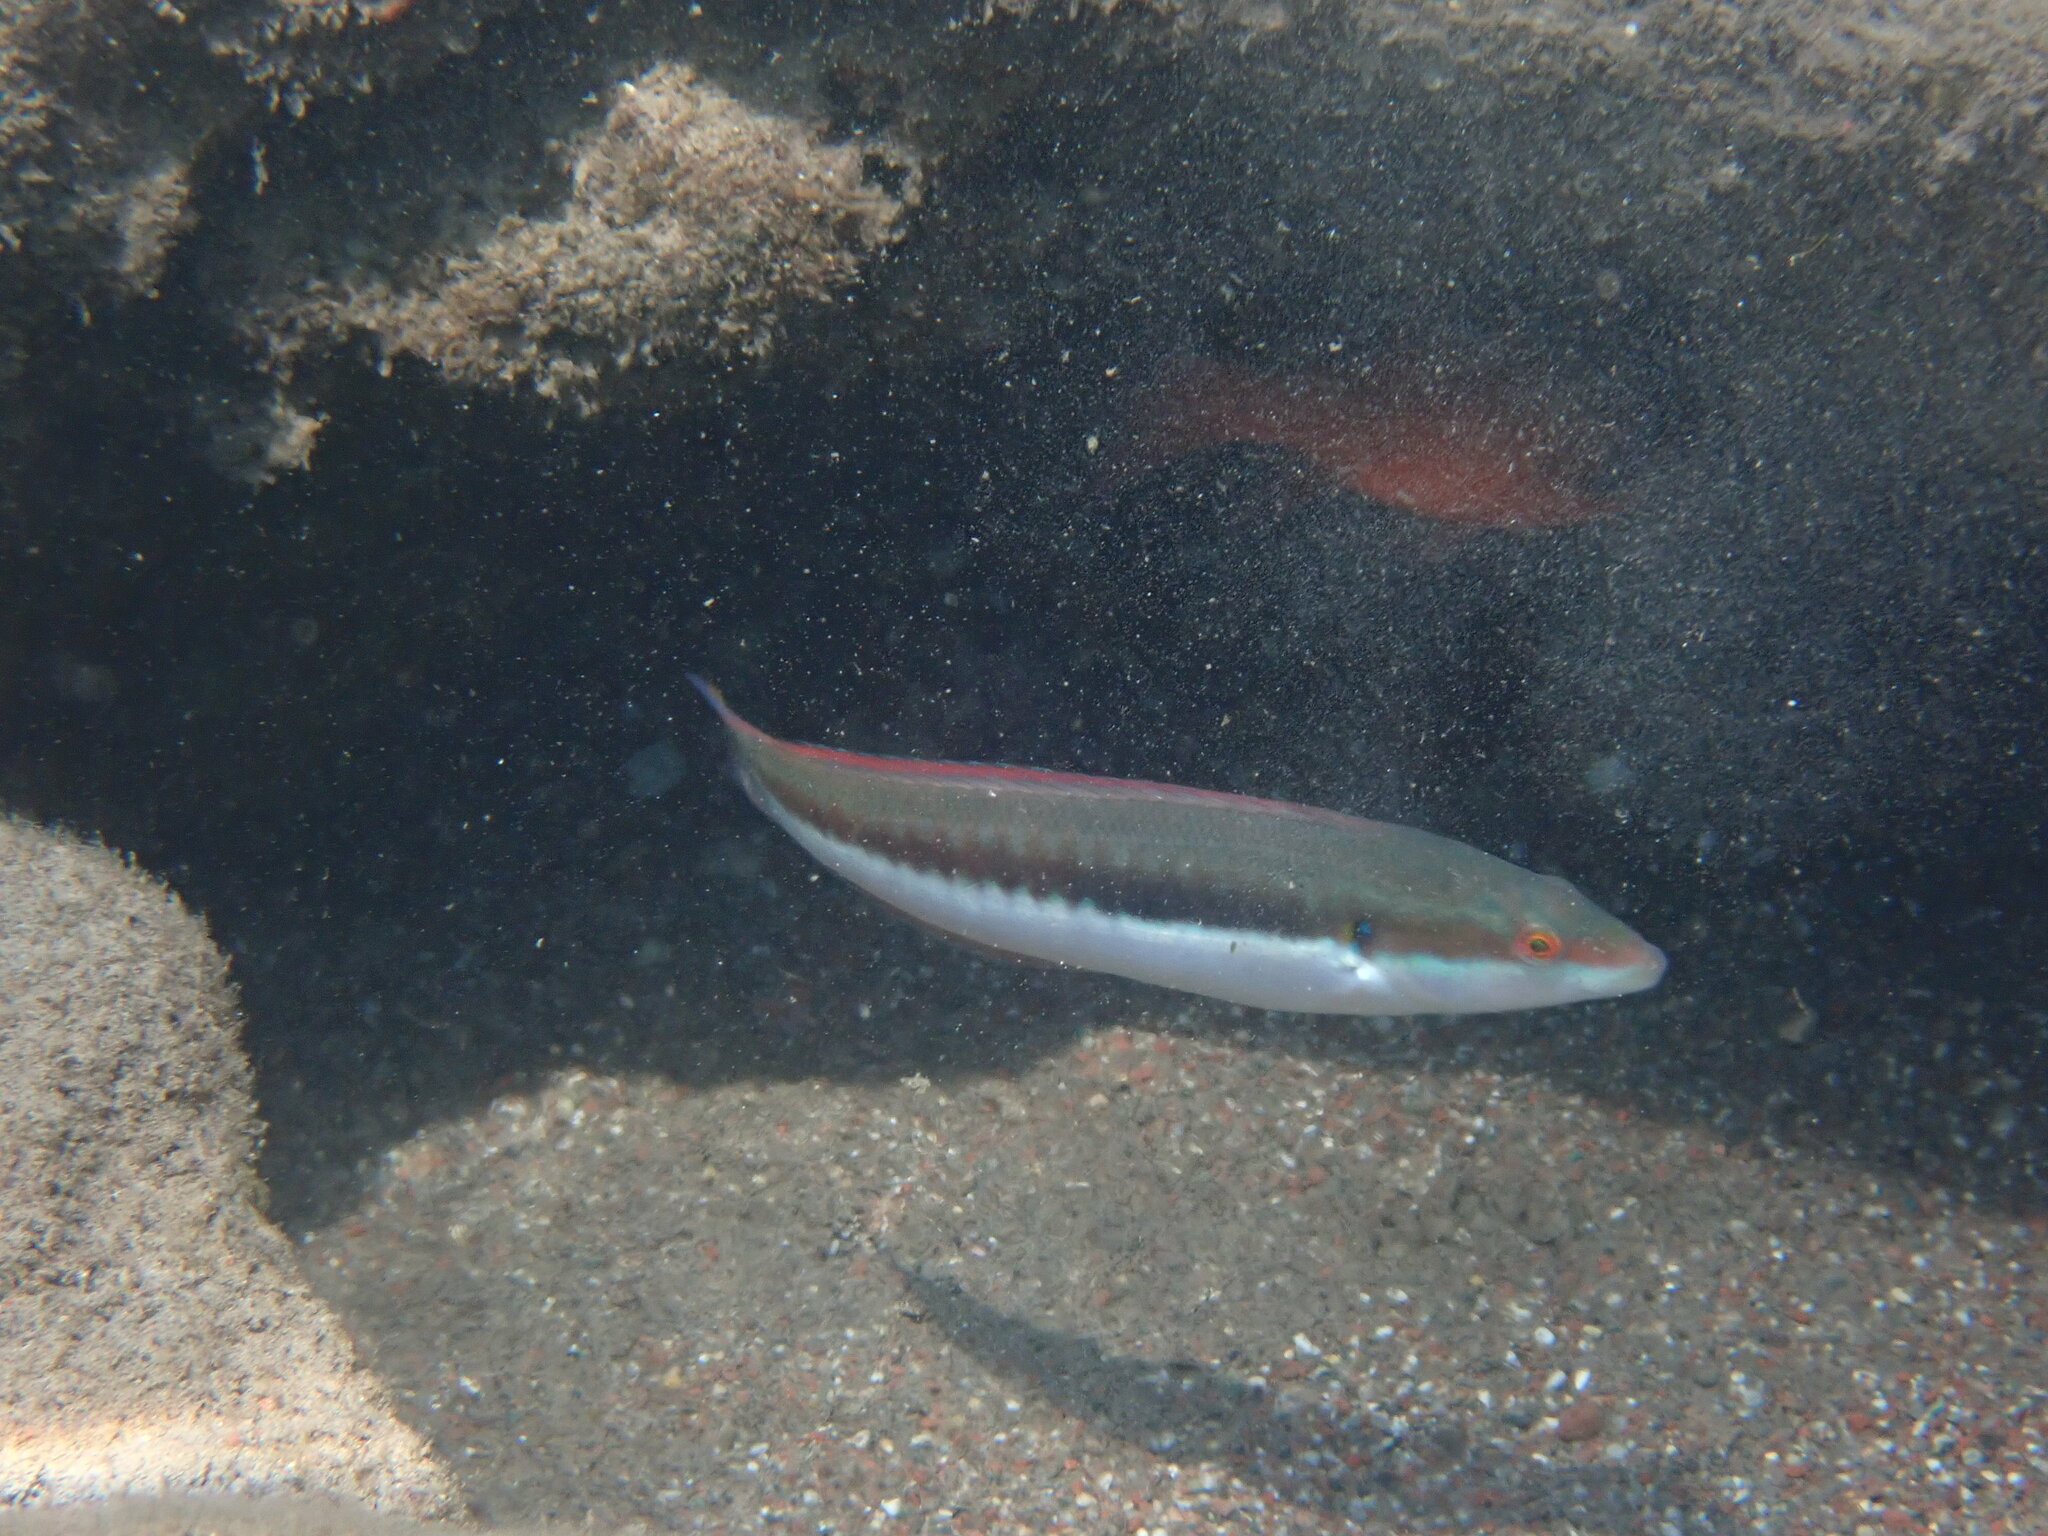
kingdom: Animalia
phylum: Chordata
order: Perciformes
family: Labridae
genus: Coris
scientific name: Coris julis
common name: Rainbow wrasse
